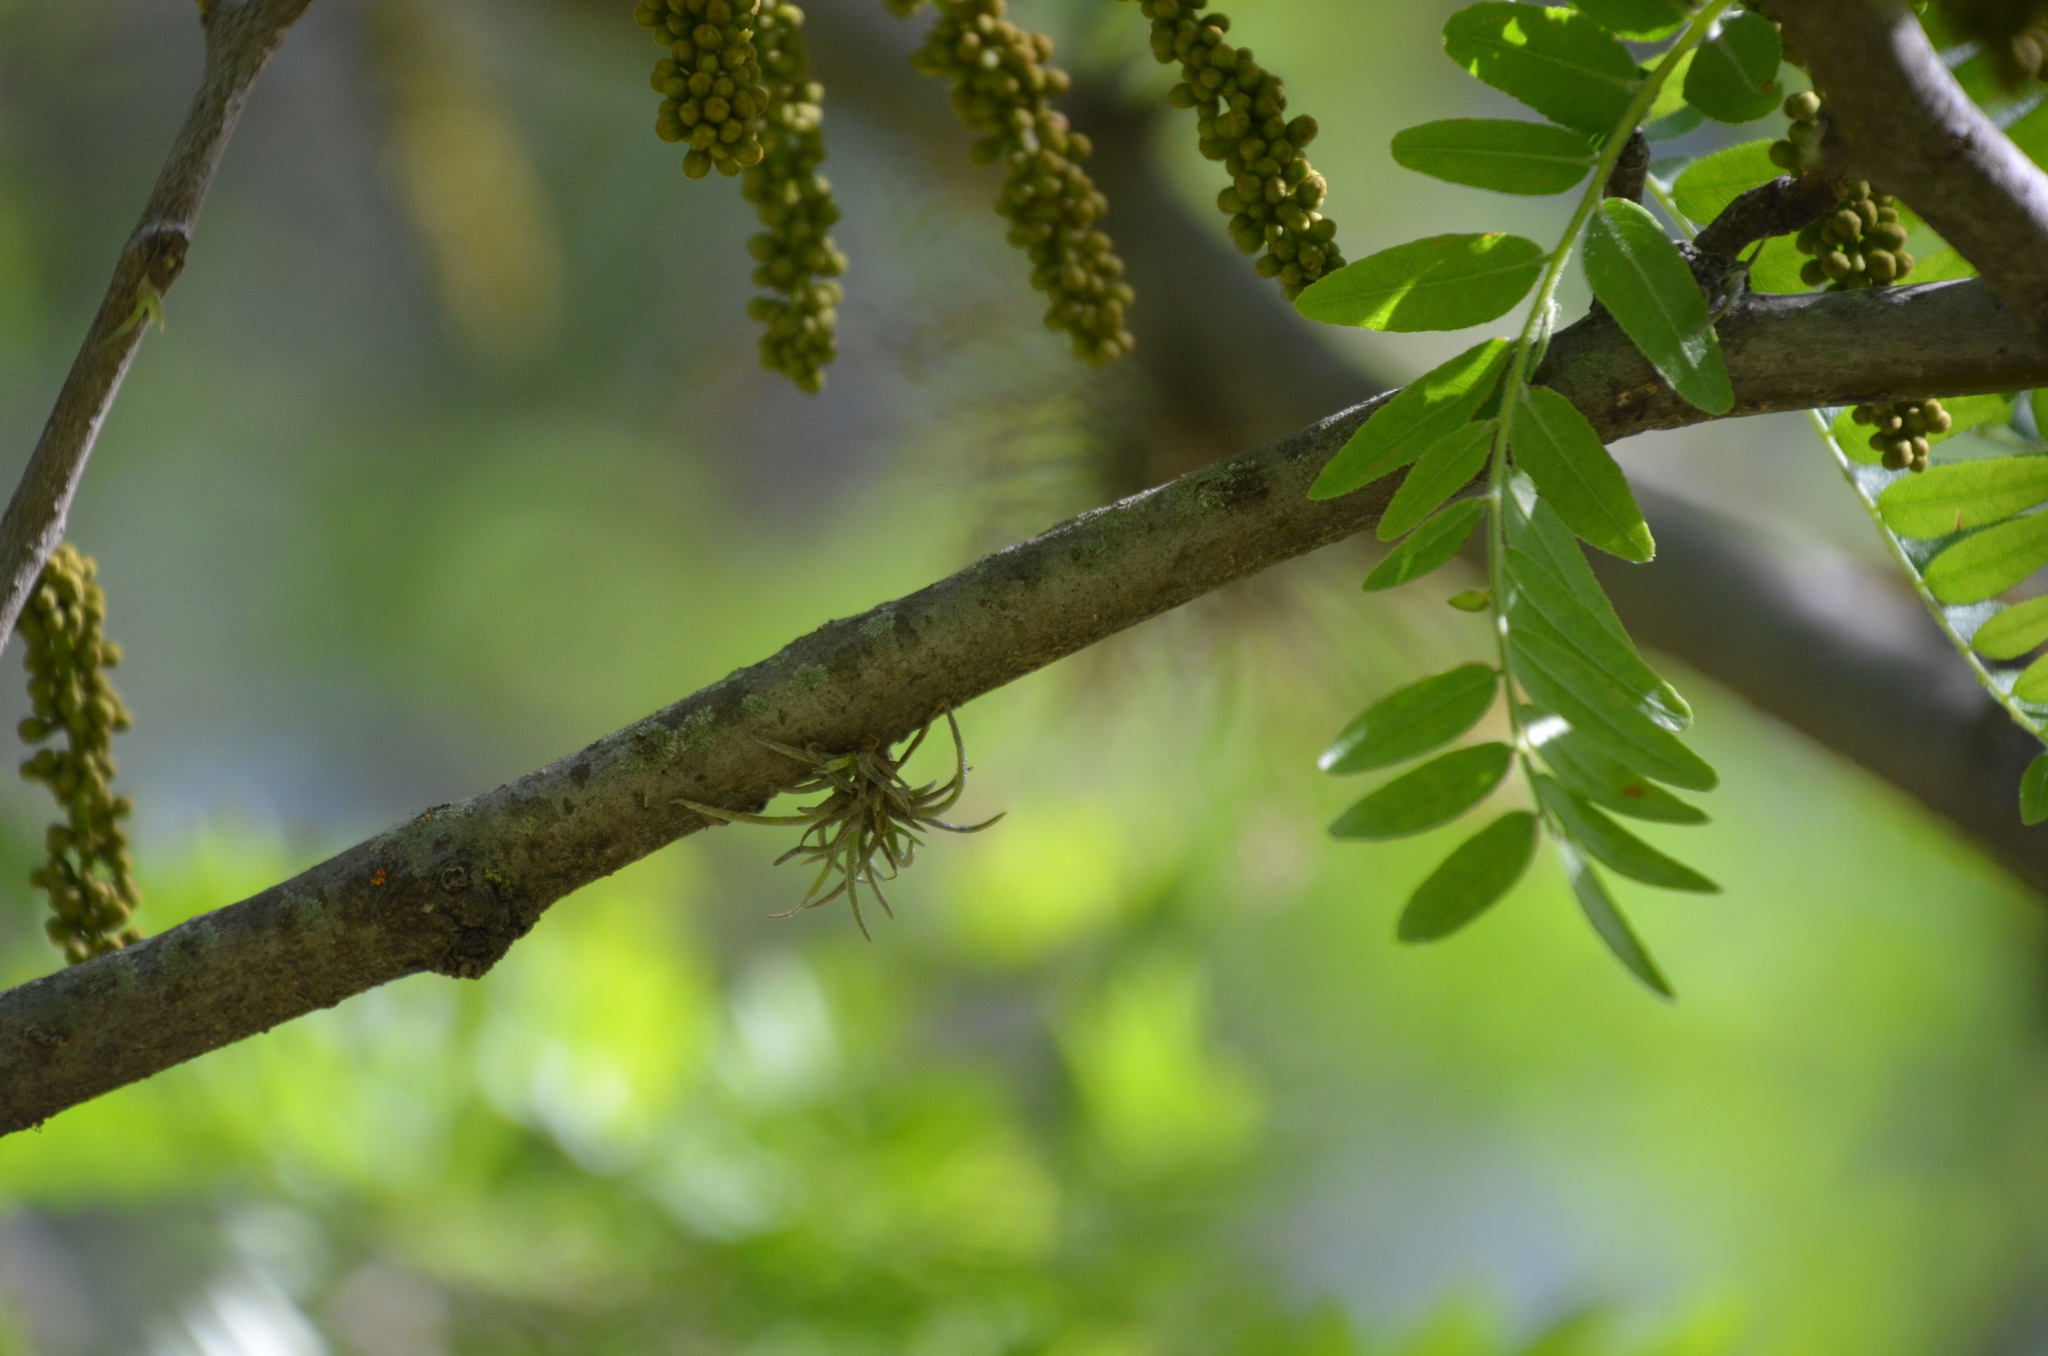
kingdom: Plantae
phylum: Tracheophyta
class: Liliopsida
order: Poales
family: Bromeliaceae
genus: Tillandsia
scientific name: Tillandsia recurvata
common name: Small ballmoss
